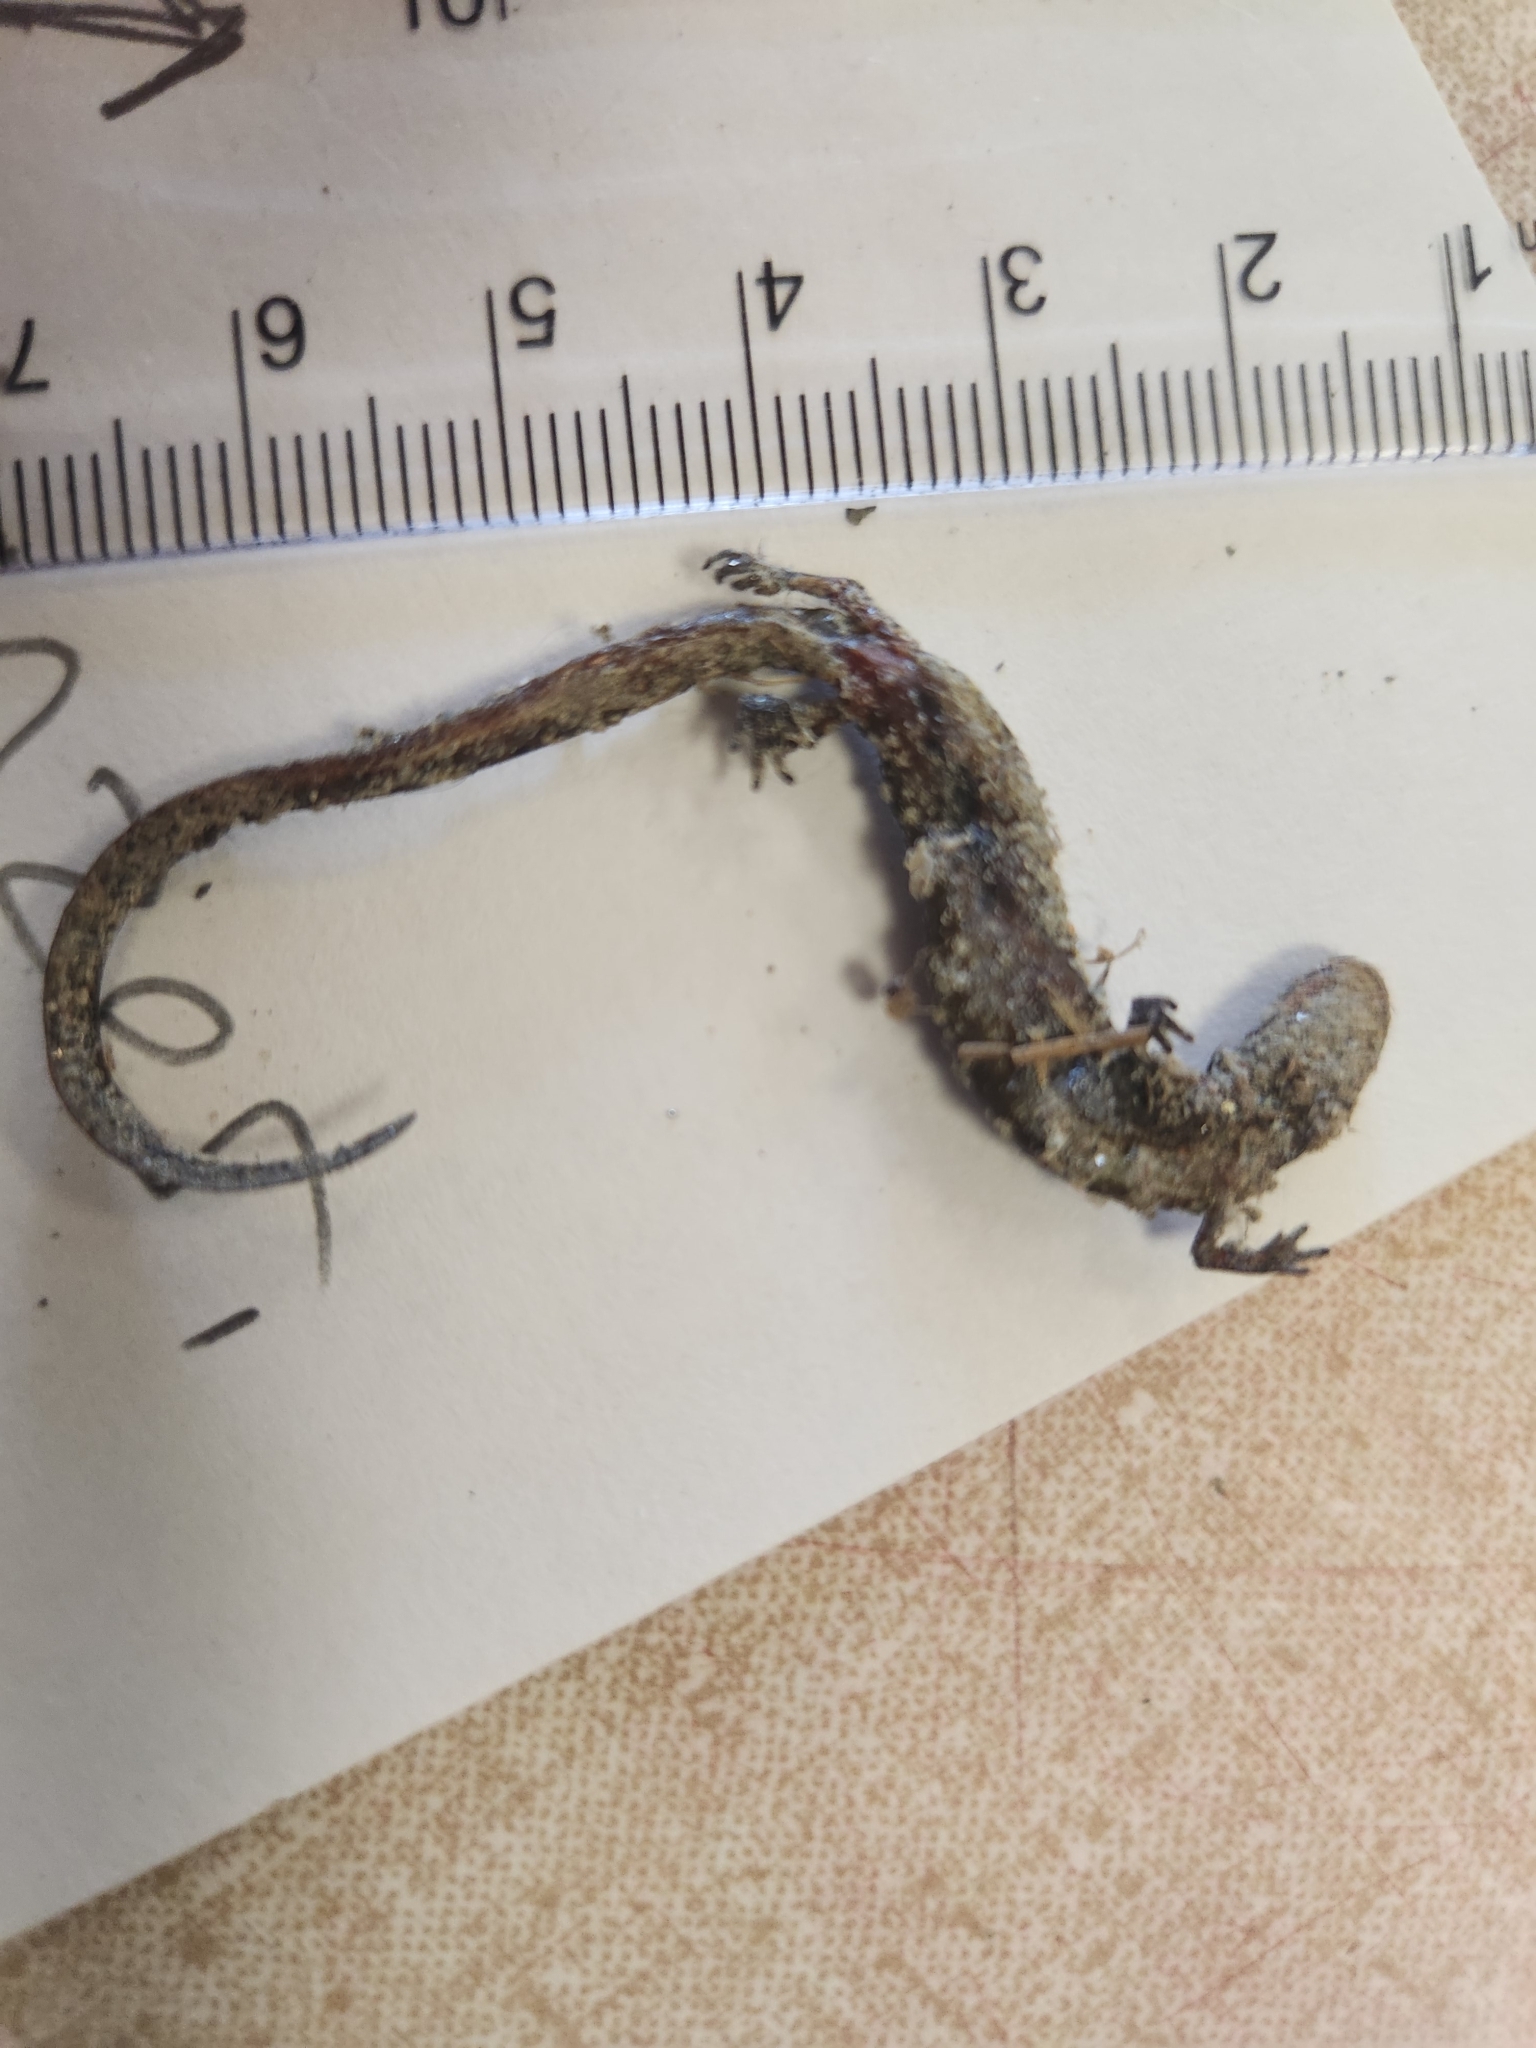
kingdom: Animalia
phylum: Chordata
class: Amphibia
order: Caudata
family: Plethodontidae
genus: Plethodon
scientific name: Plethodon cinereus
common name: Redback salamander
